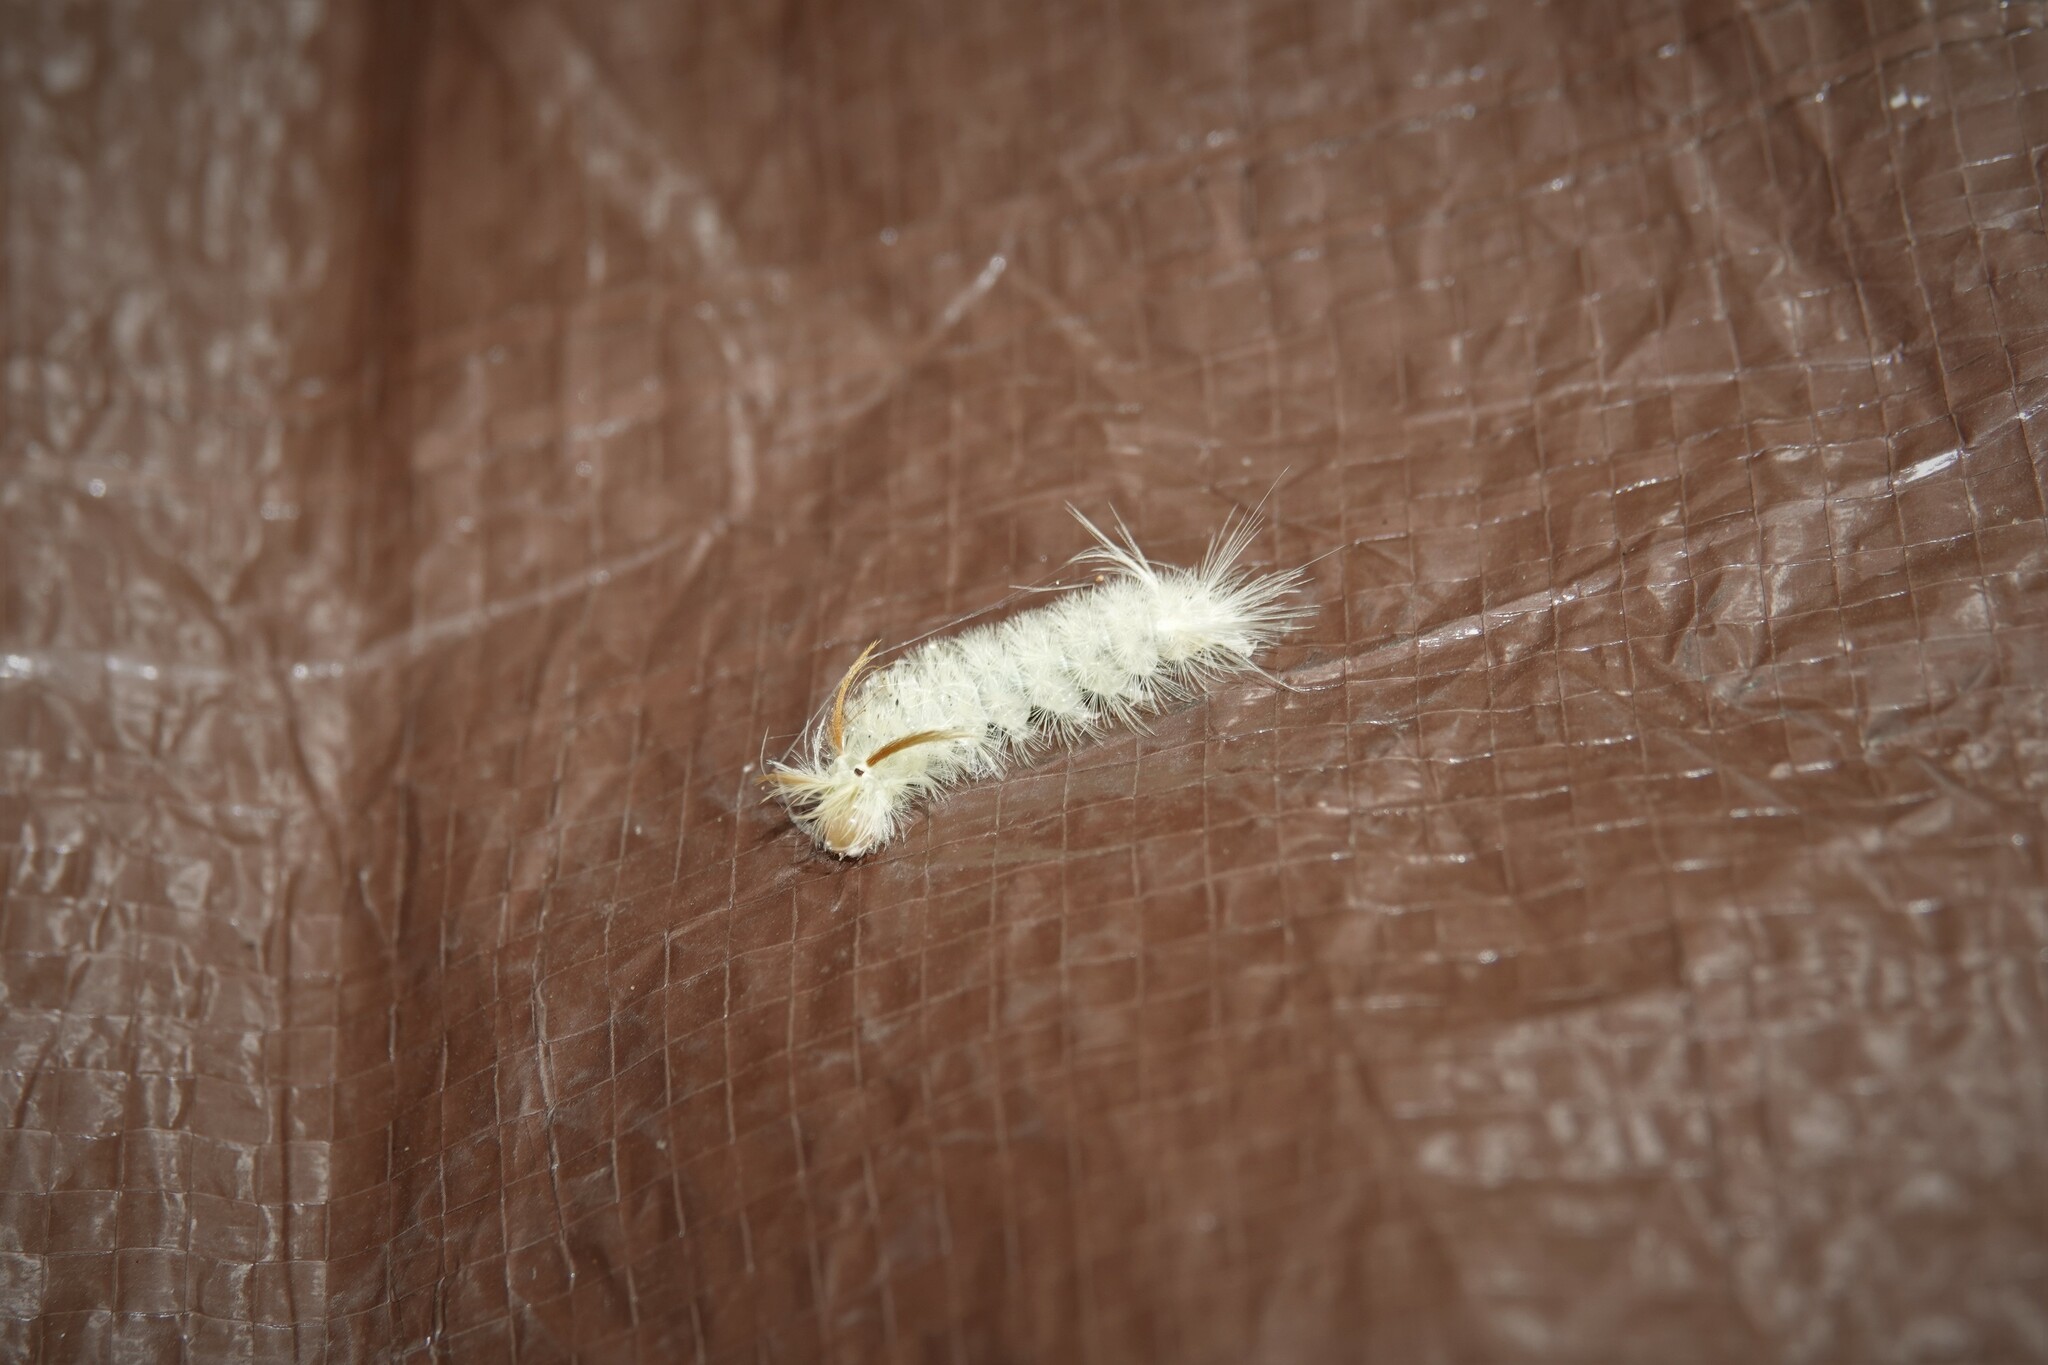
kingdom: Animalia
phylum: Arthropoda
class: Insecta
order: Lepidoptera
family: Erebidae
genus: Halysidota
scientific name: Halysidota harrisii
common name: Sycamore tussock moth
